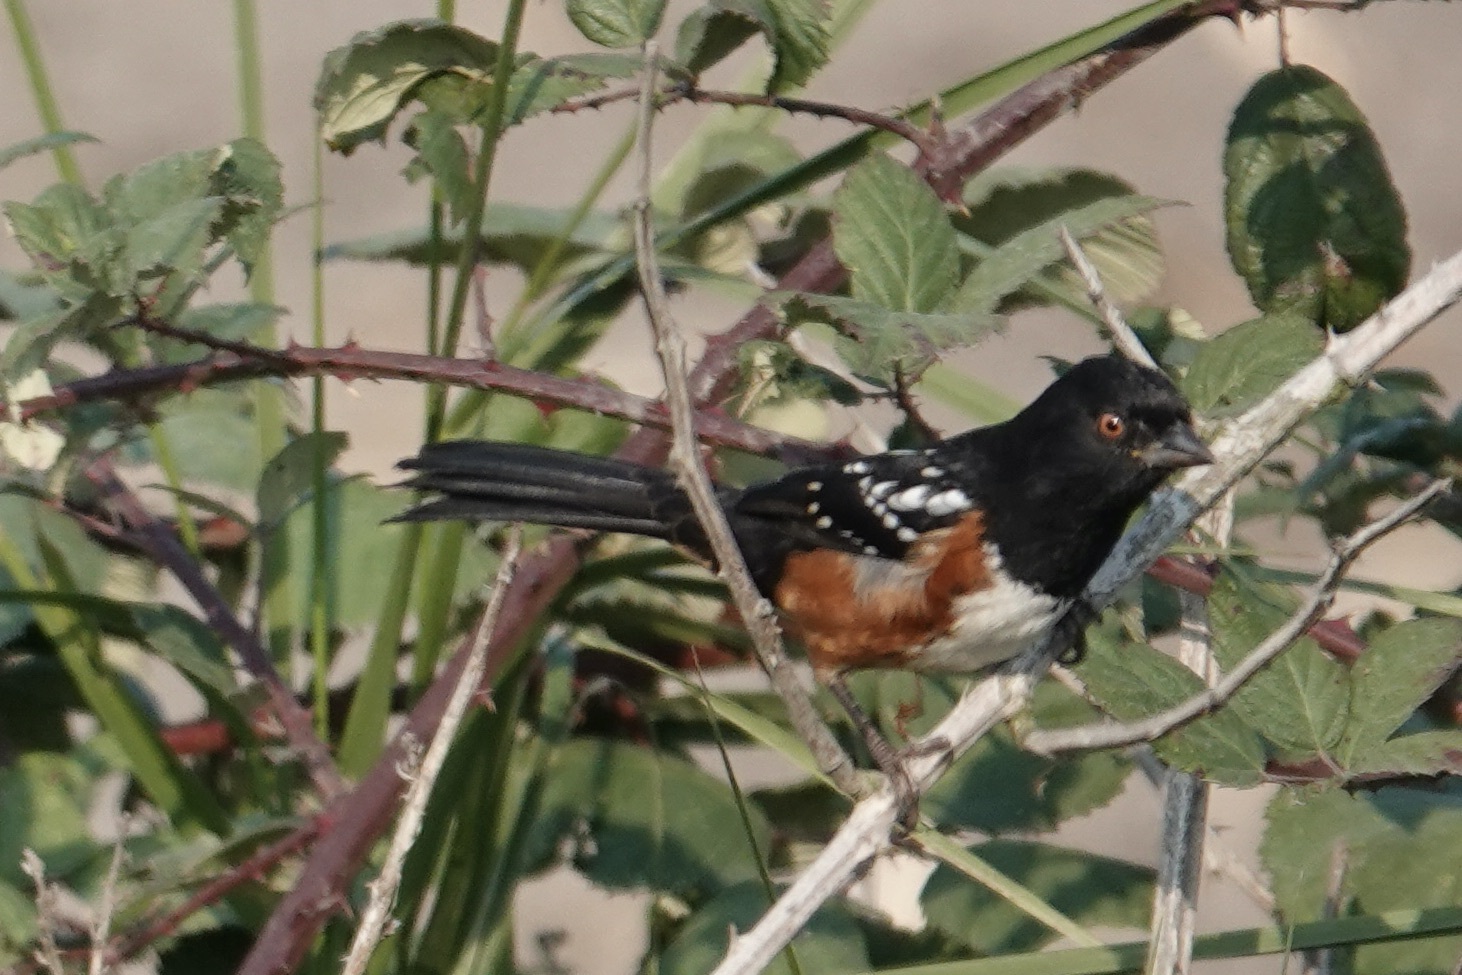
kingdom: Animalia
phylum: Chordata
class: Aves
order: Passeriformes
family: Passerellidae
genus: Pipilo
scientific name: Pipilo maculatus
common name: Spotted towhee
